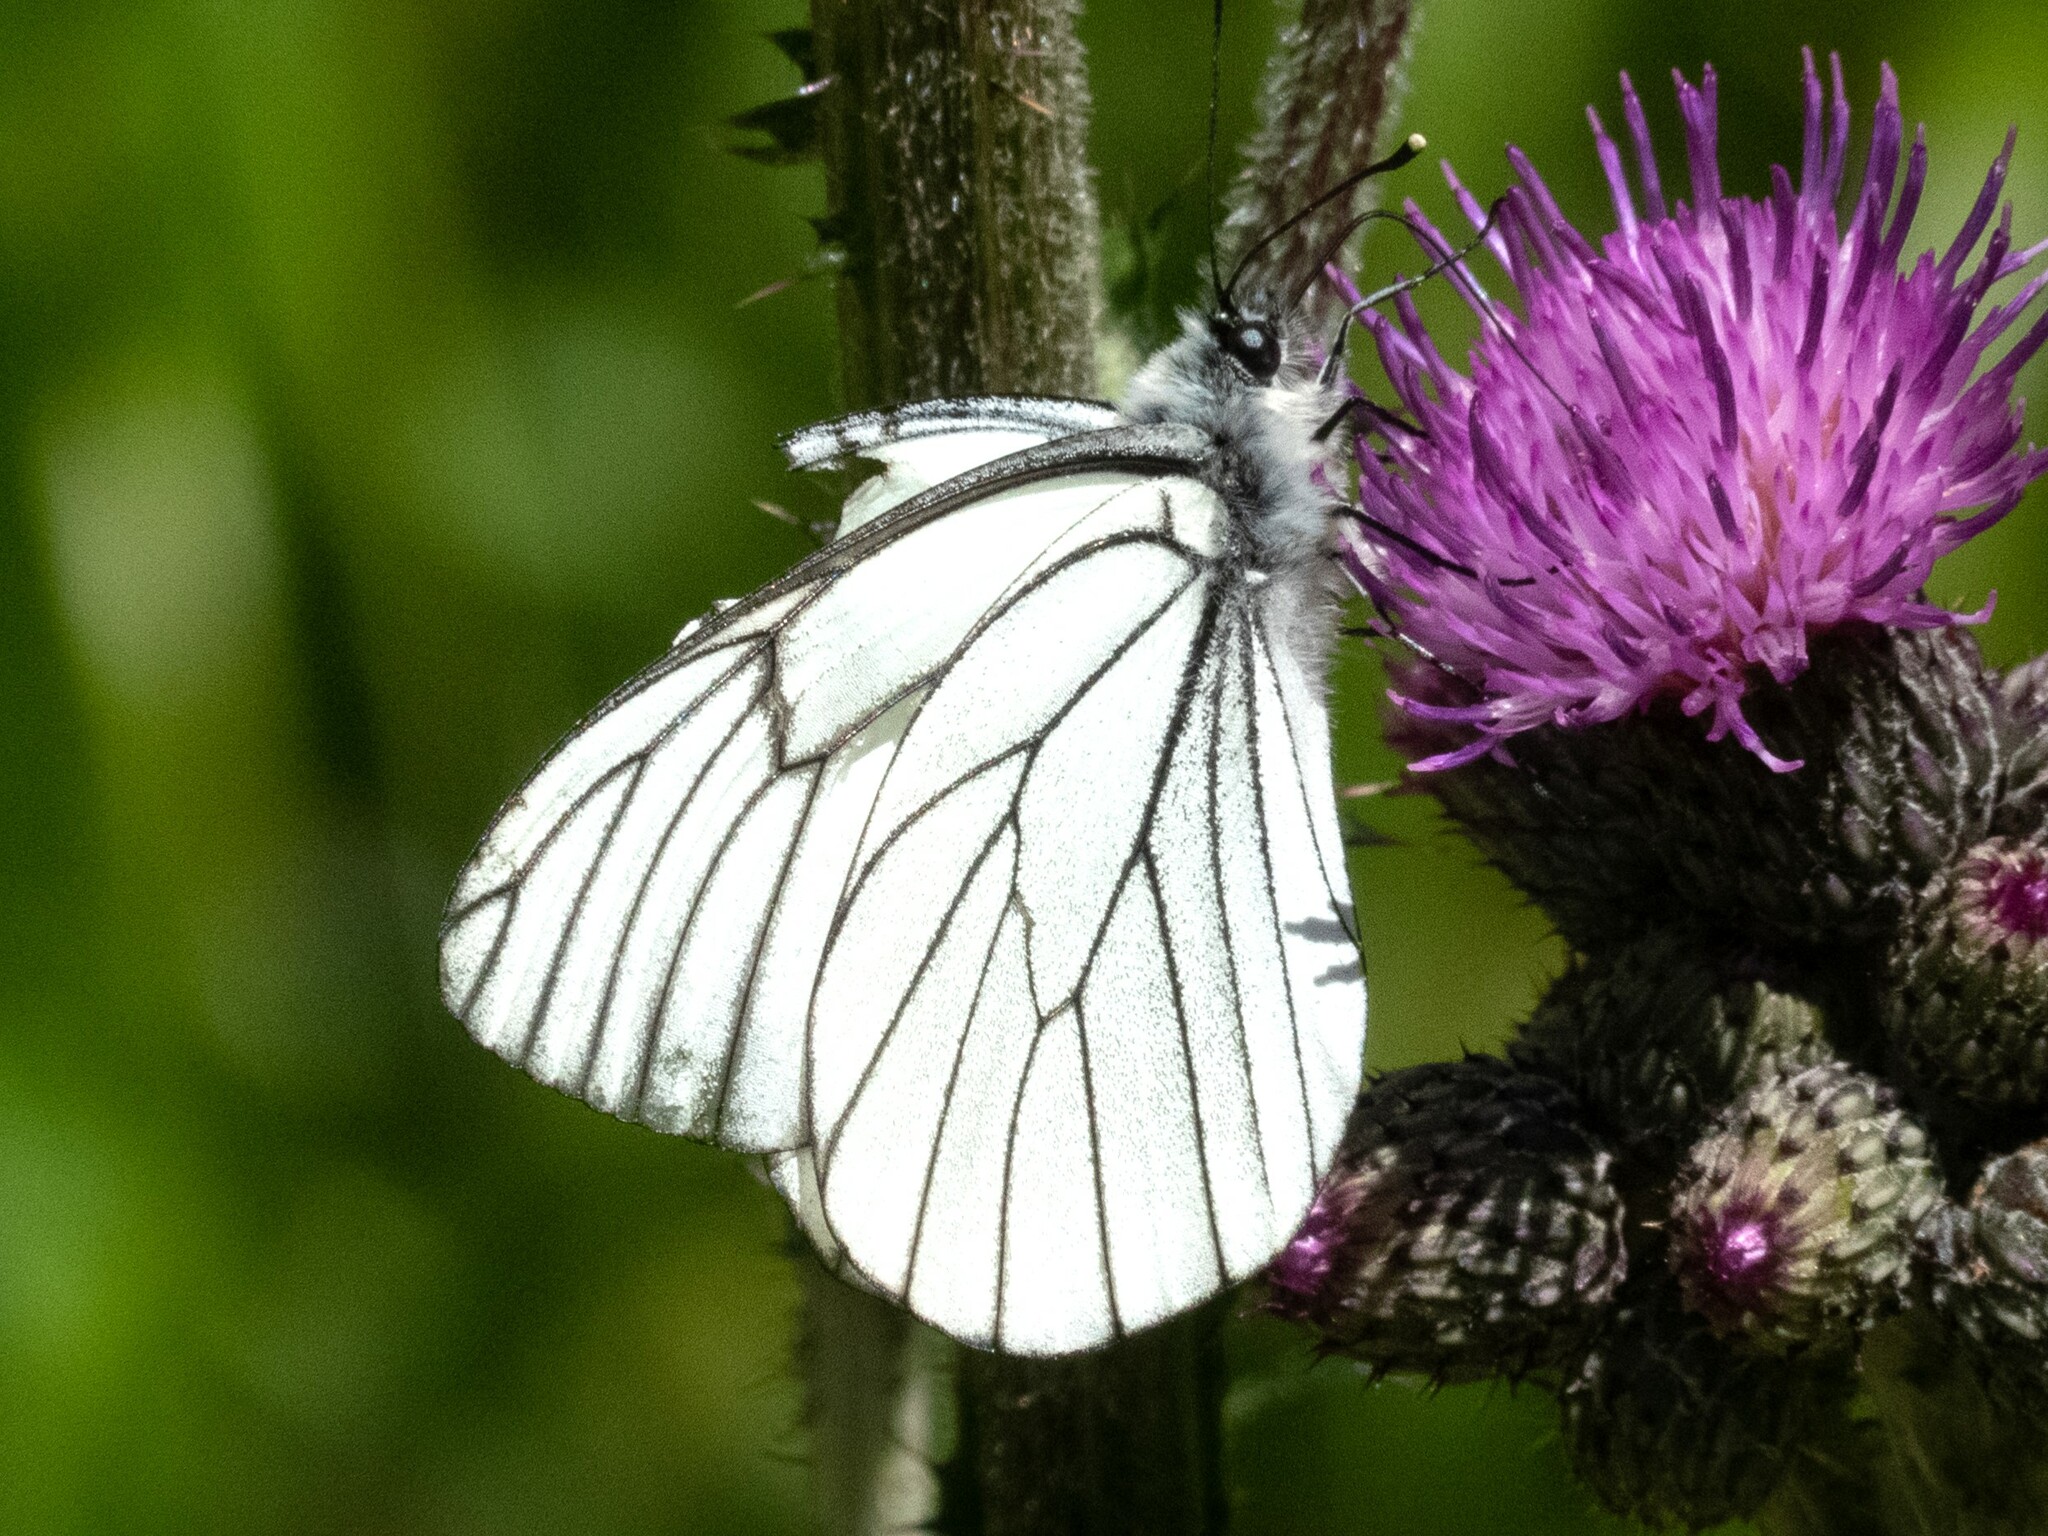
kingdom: Animalia
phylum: Arthropoda
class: Insecta
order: Lepidoptera
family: Pieridae
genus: Aporia
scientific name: Aporia crataegi
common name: Black-veined white
